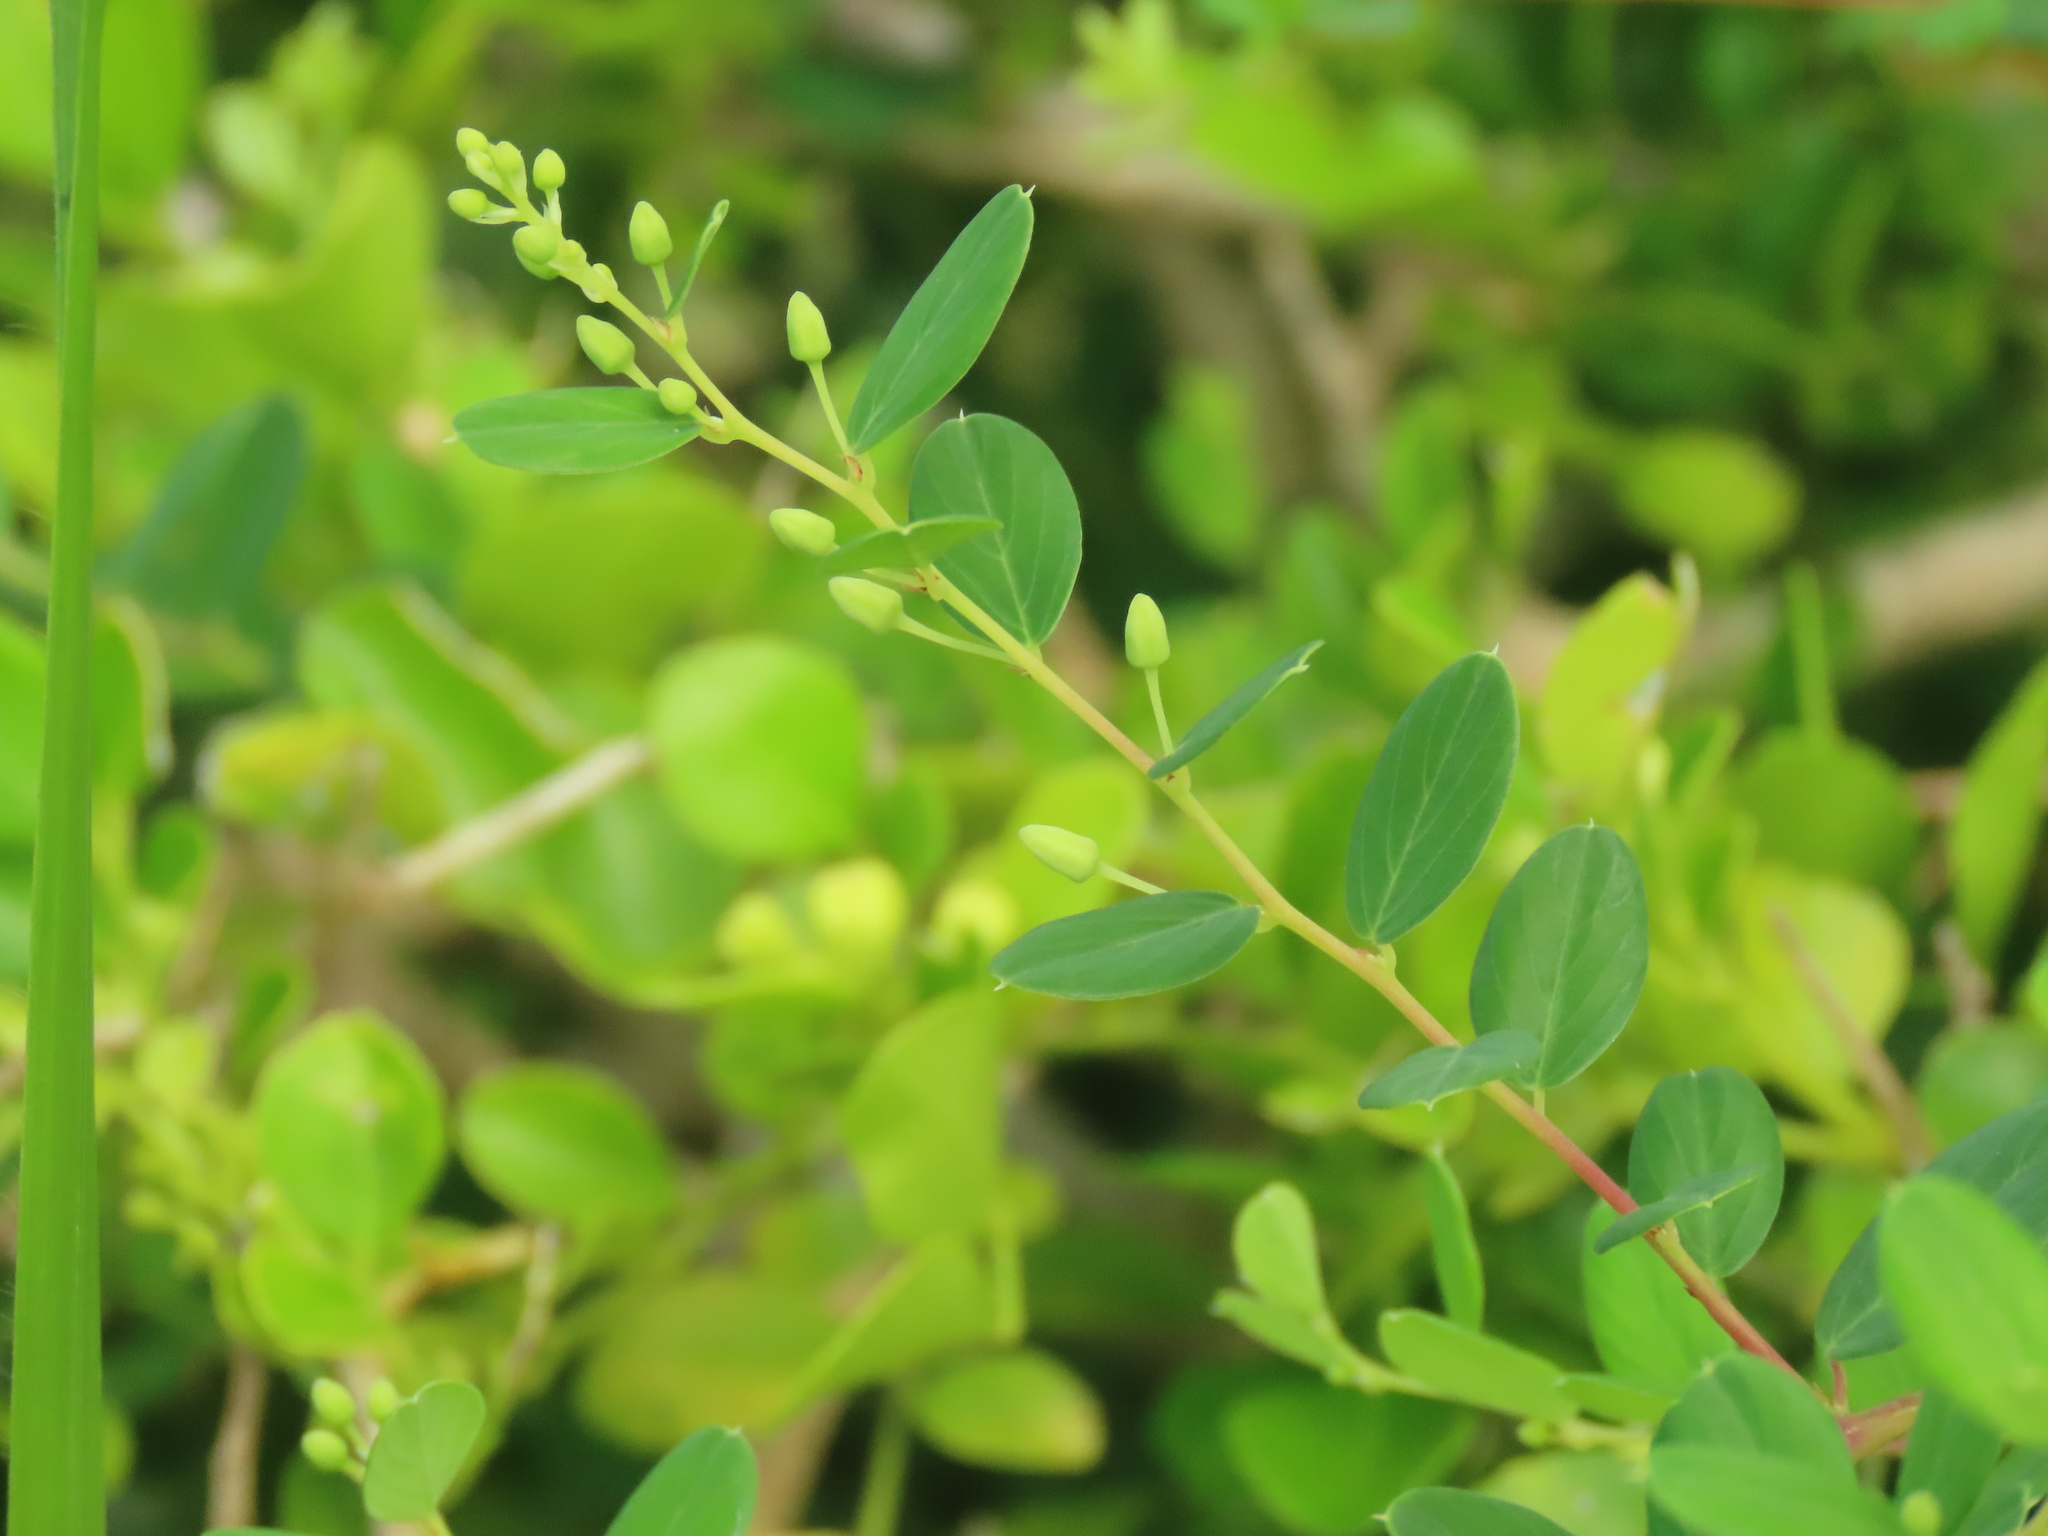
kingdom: Plantae
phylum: Tracheophyta
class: Magnoliopsida
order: Rosales
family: Rhamnaceae
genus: Berchemia
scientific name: Berchemia lineata
